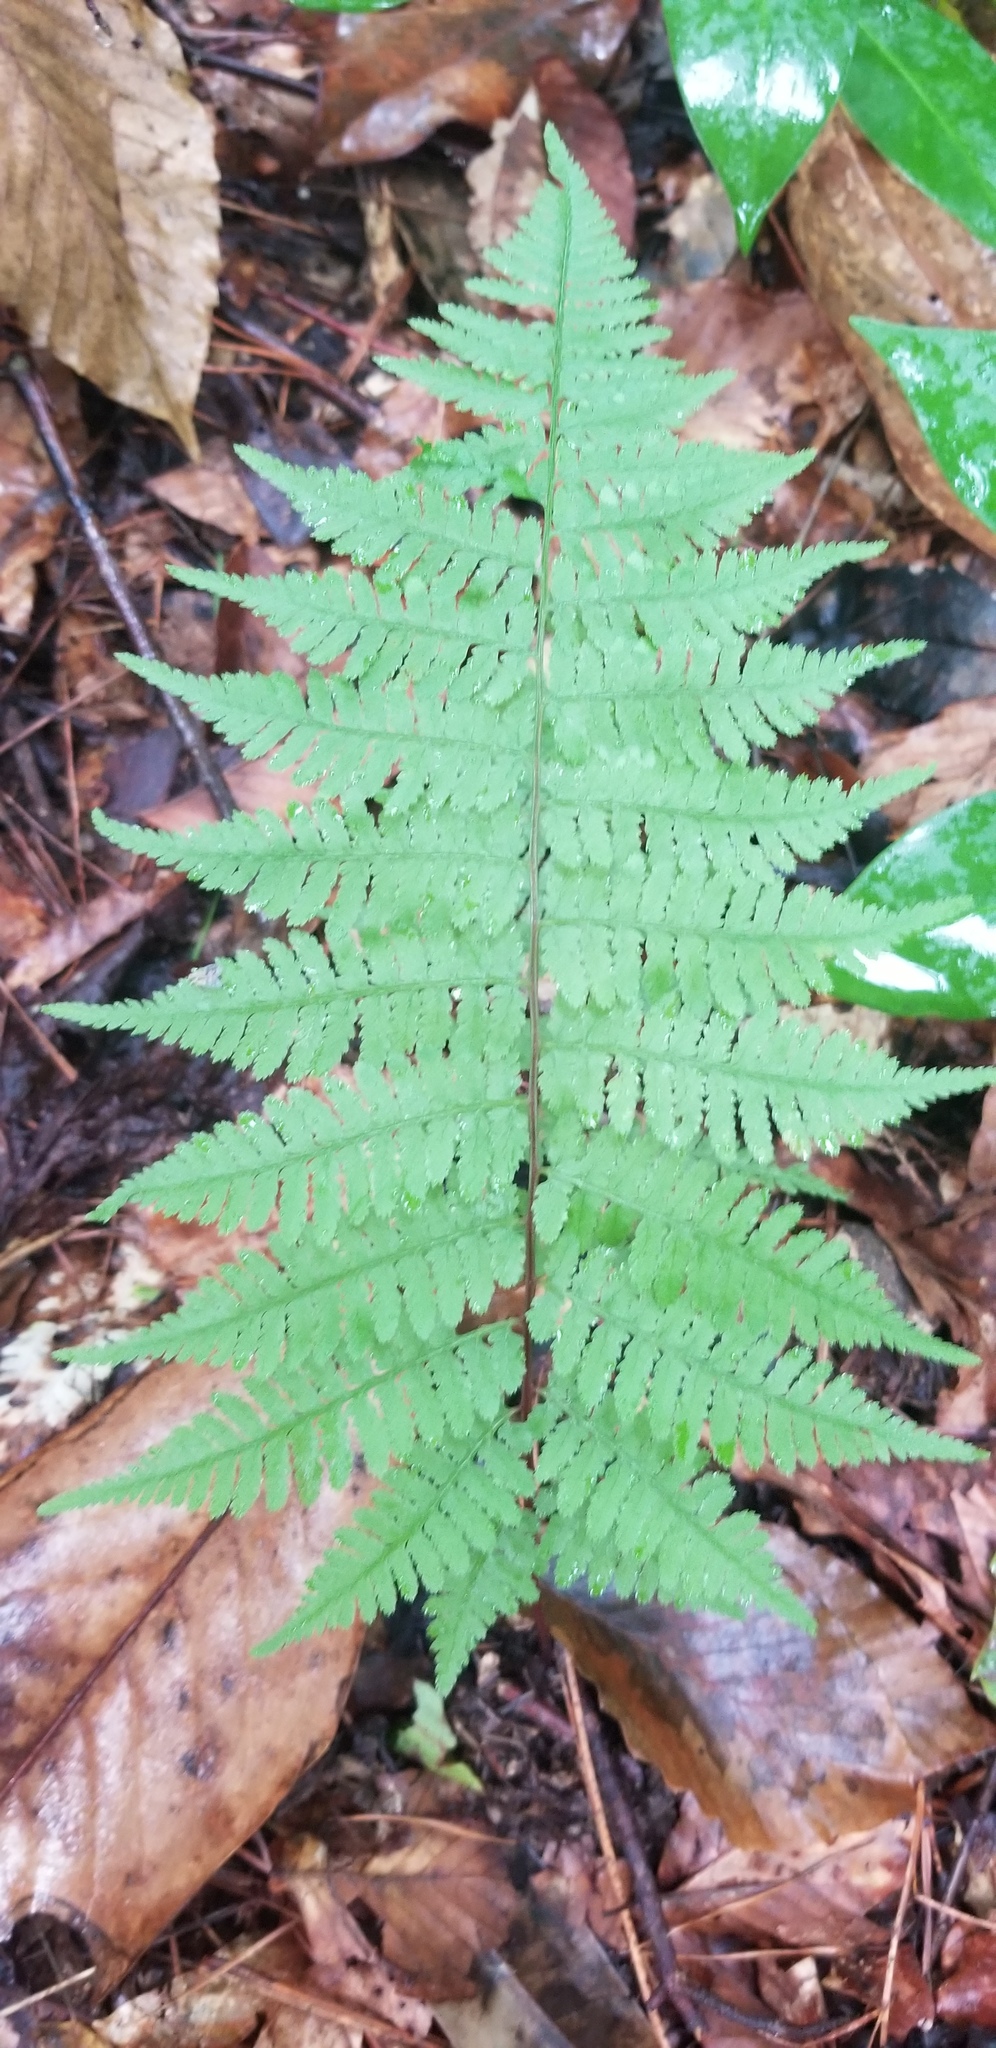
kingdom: Plantae
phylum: Tracheophyta
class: Polypodiopsida
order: Polypodiales
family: Athyriaceae
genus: Athyrium
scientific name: Athyrium asplenioides
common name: Southern lady fern
